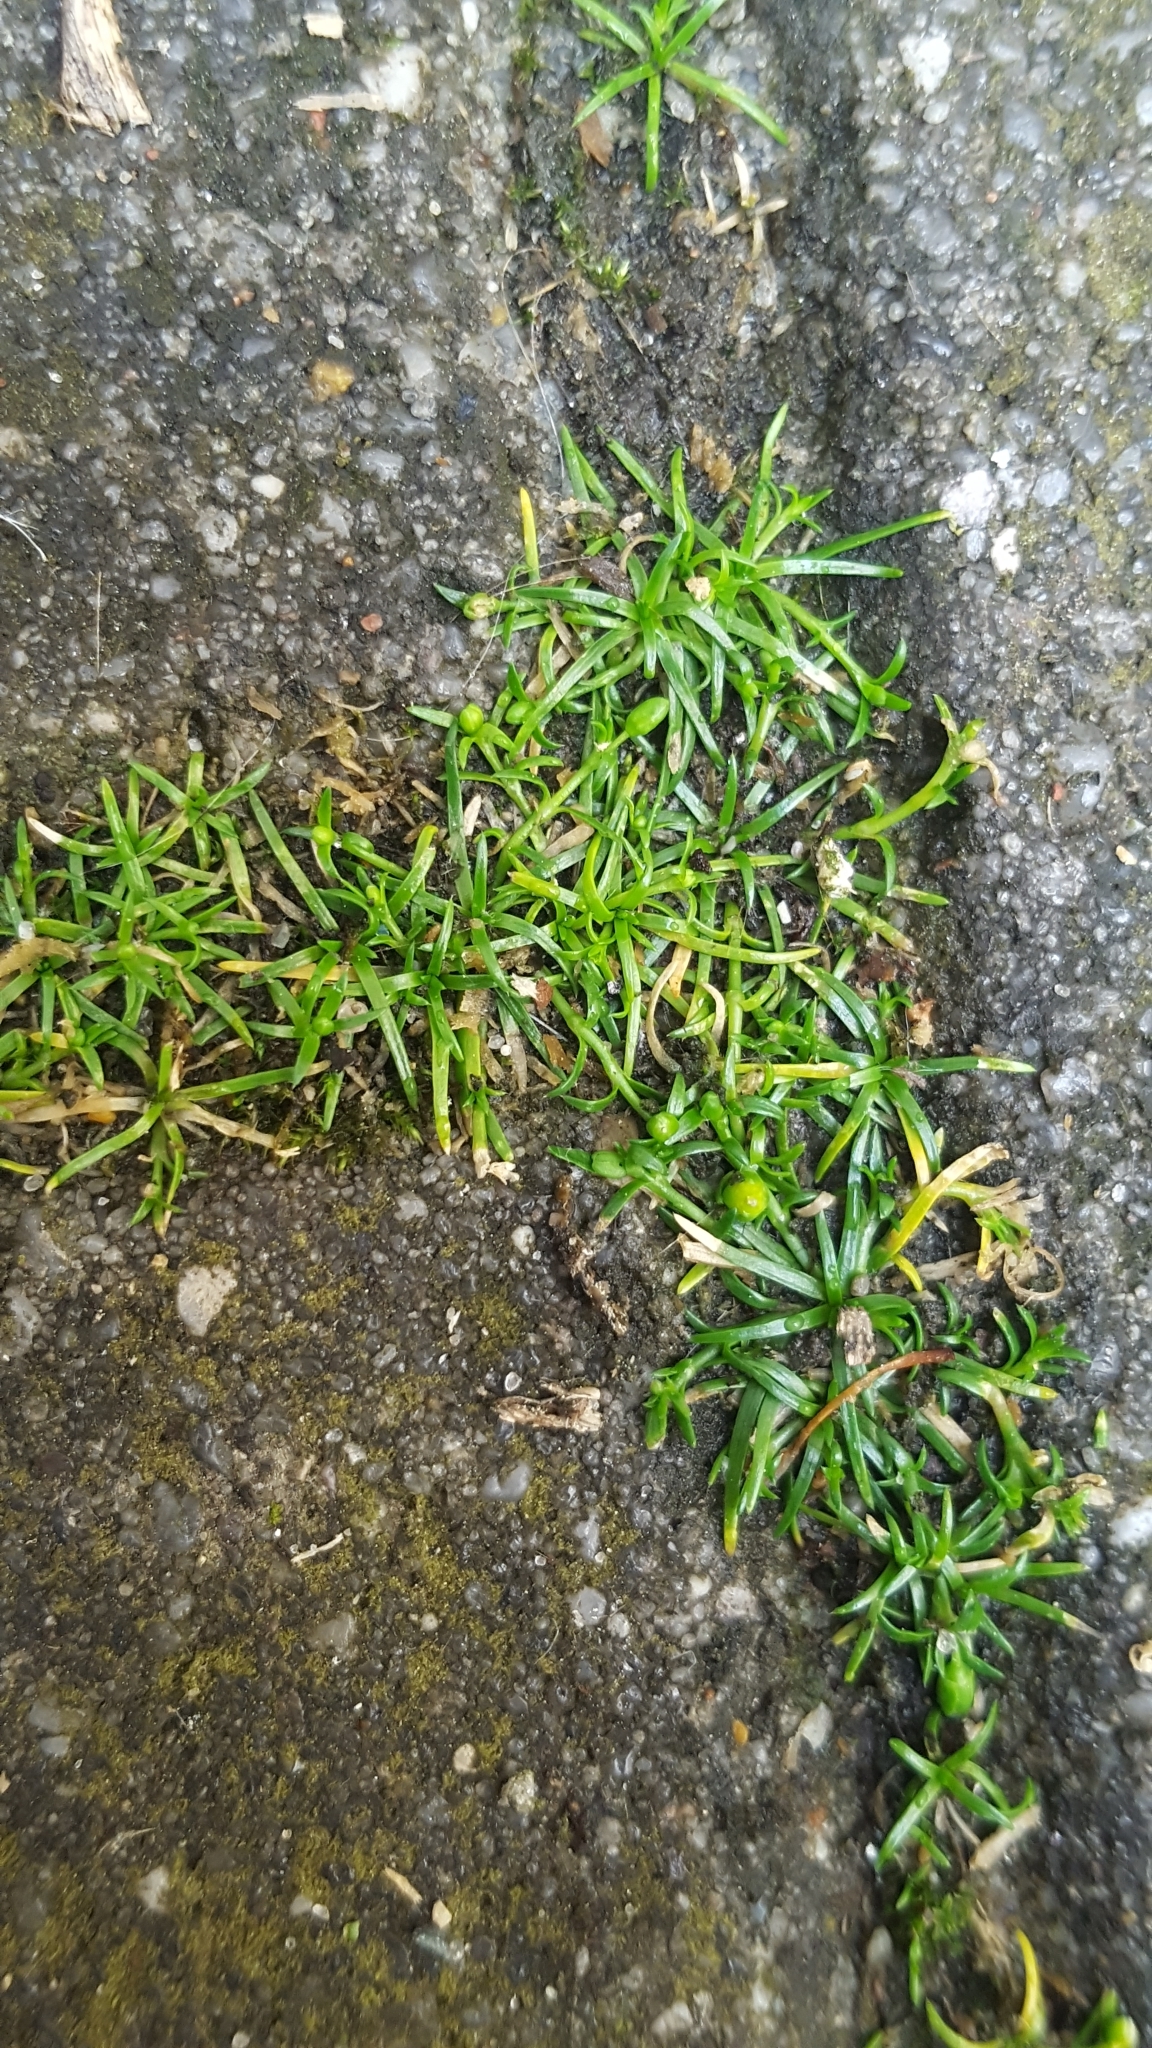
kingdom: Plantae
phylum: Tracheophyta
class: Magnoliopsida
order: Caryophyllales
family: Caryophyllaceae
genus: Sagina
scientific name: Sagina procumbens
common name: Procumbent pearlwort
